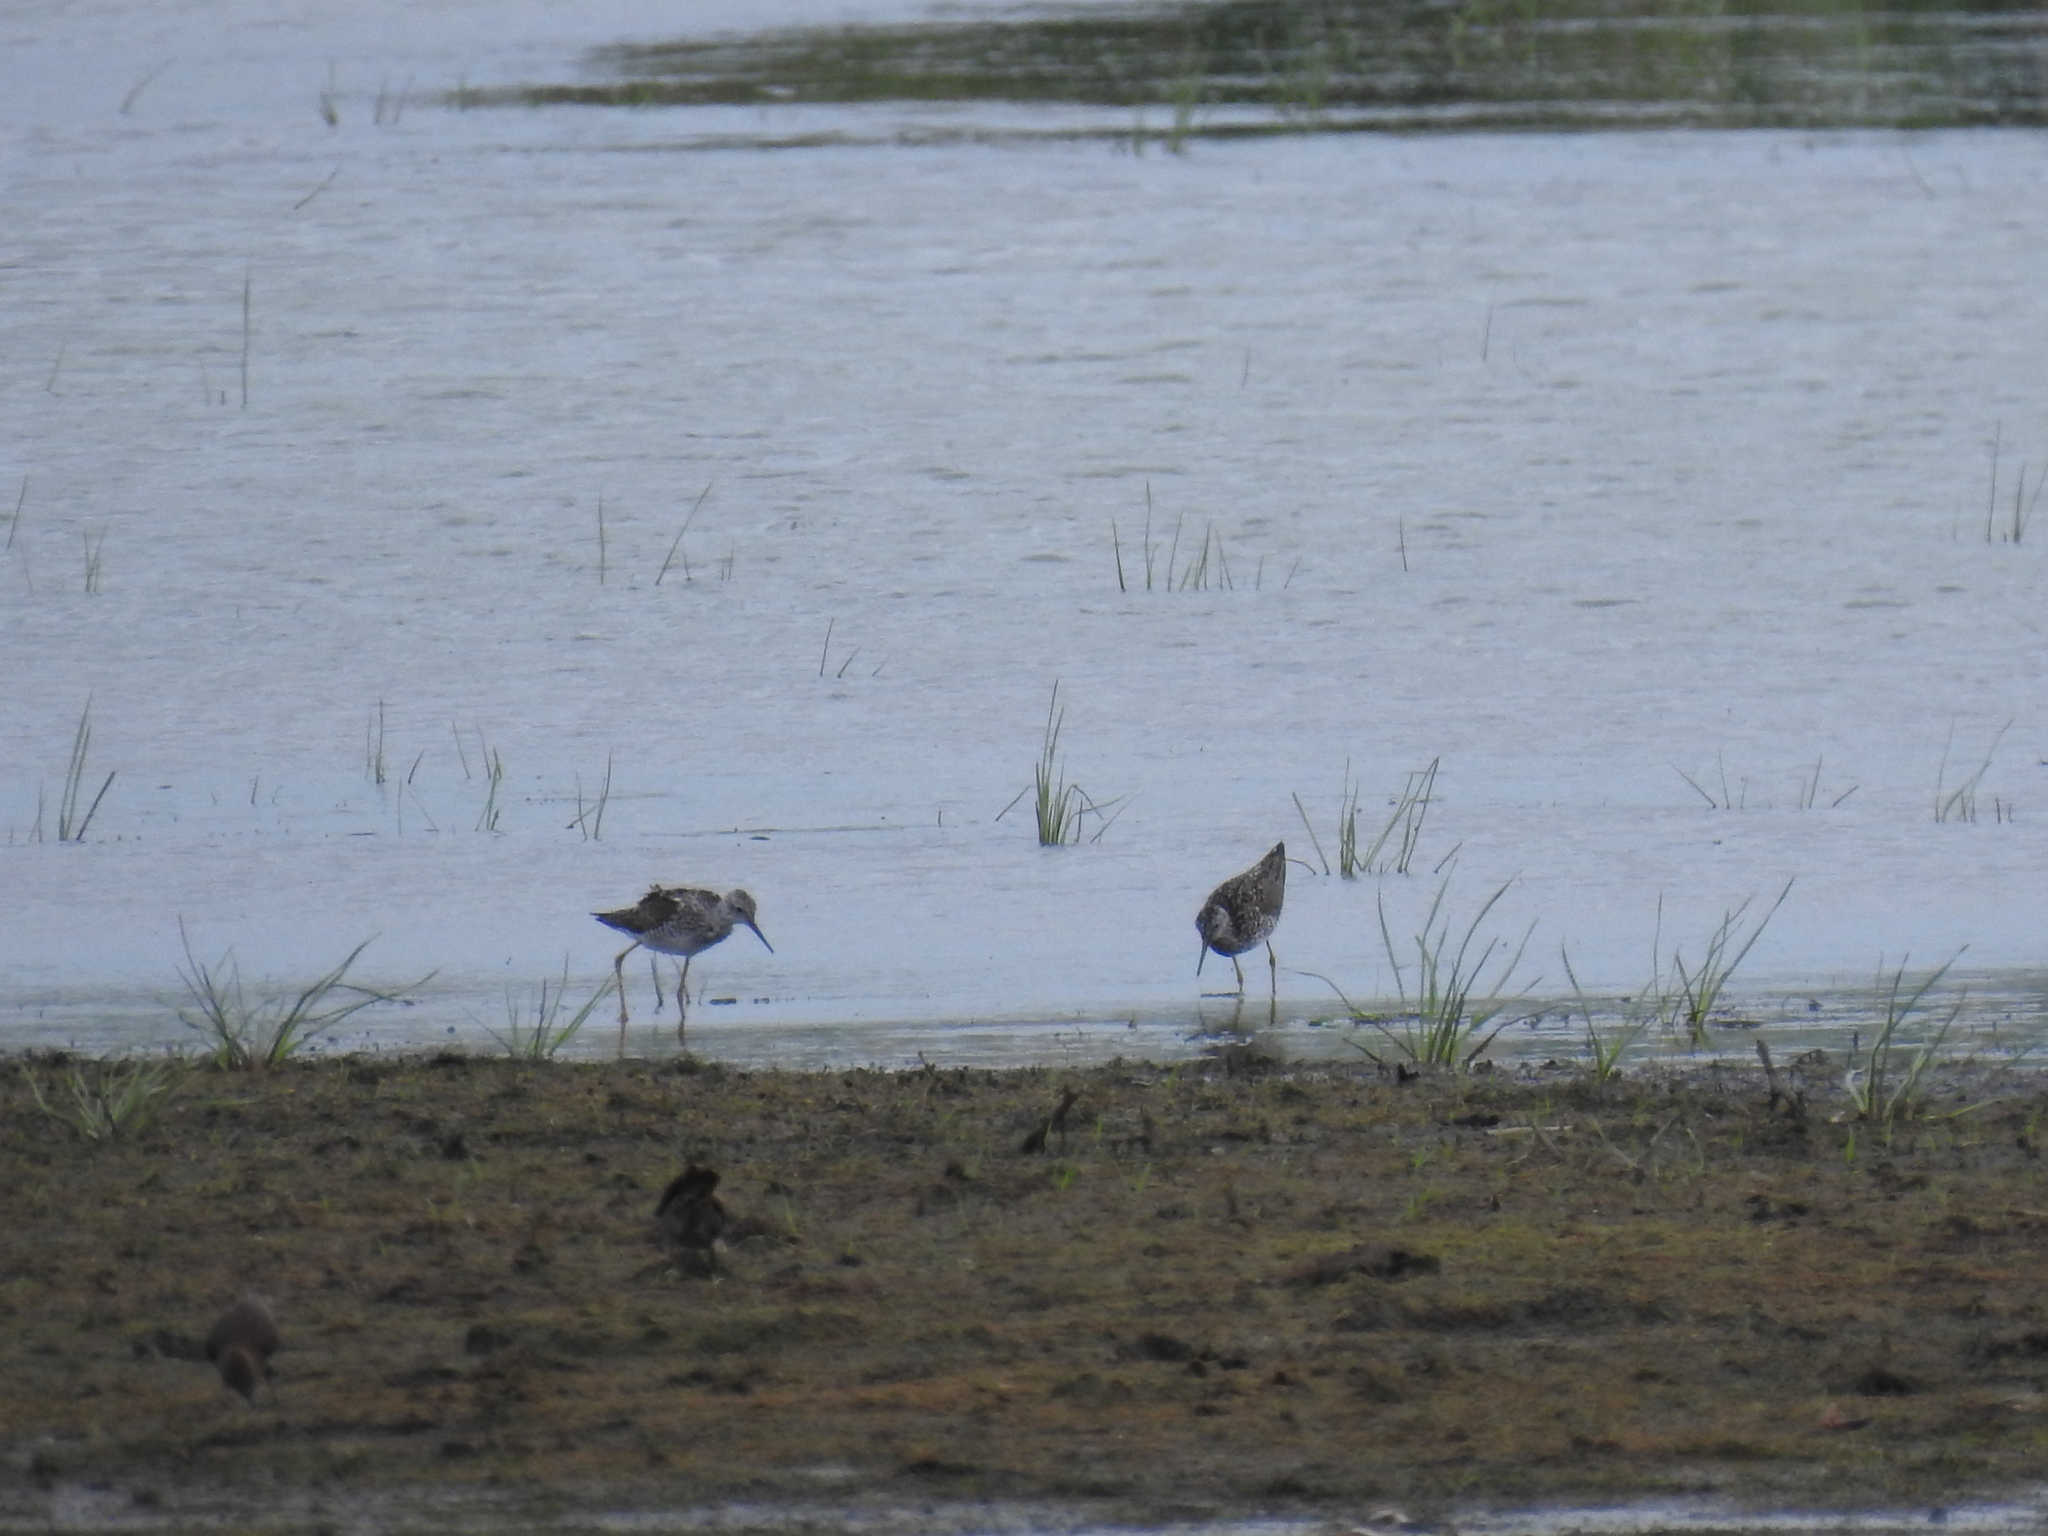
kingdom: Animalia
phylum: Chordata
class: Aves
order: Charadriiformes
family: Scolopacidae
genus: Tringa
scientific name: Tringa flavipes
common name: Lesser yellowlegs
